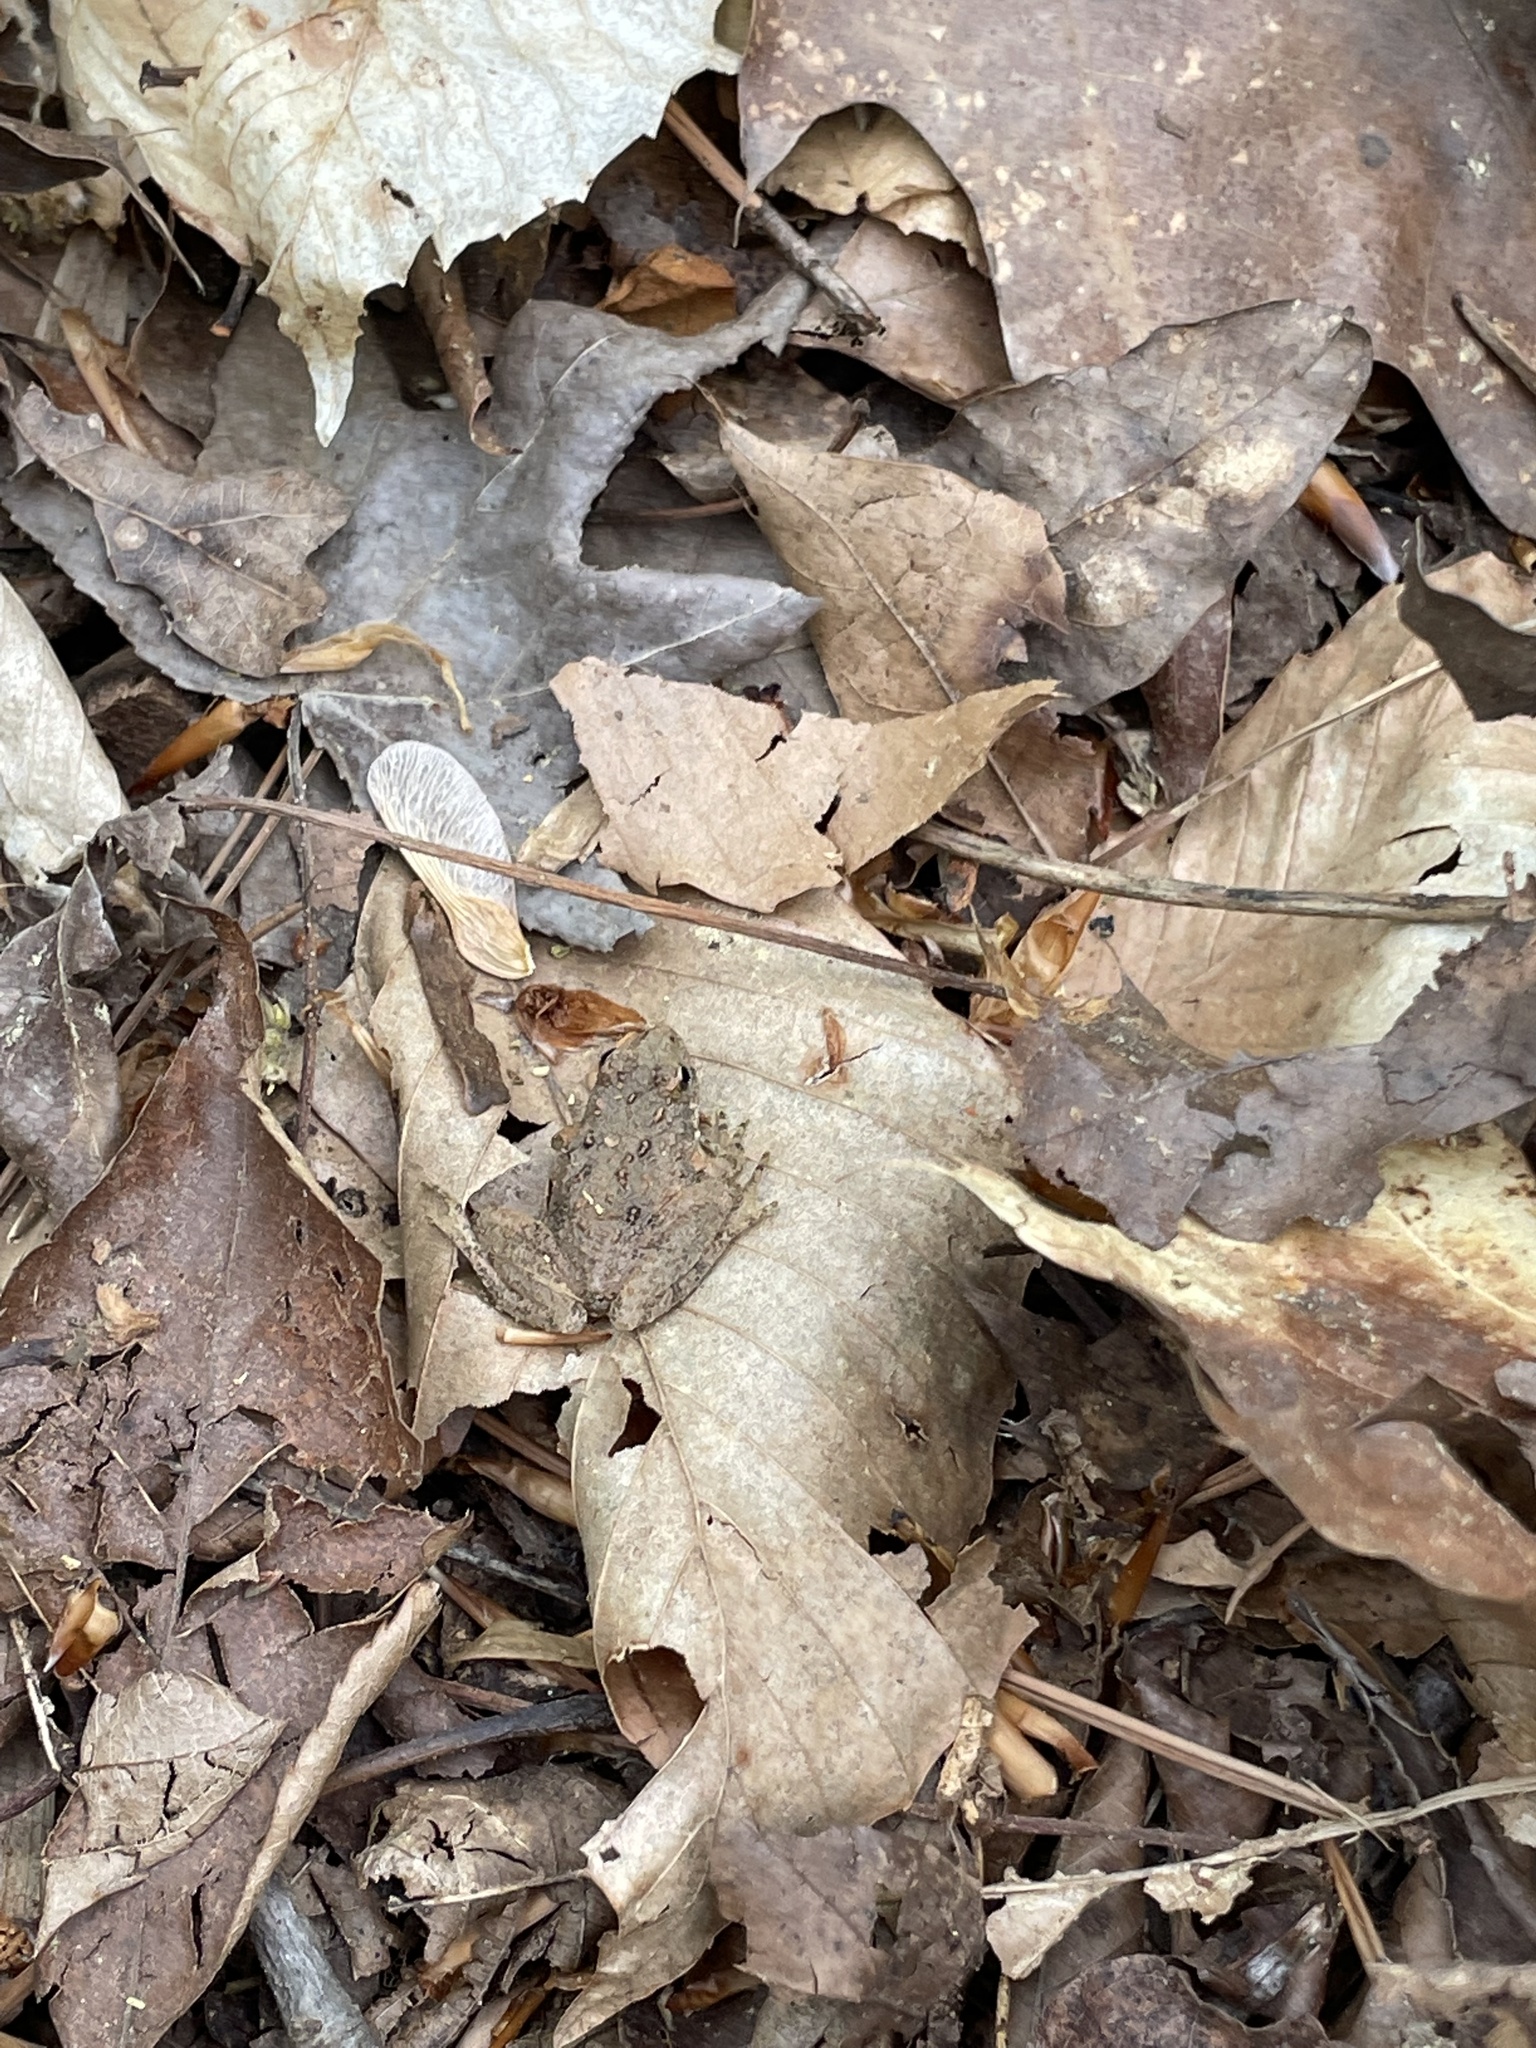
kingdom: Animalia
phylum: Chordata
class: Amphibia
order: Anura
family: Hylidae
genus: Acris
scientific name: Acris crepitans
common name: Northern cricket frog
